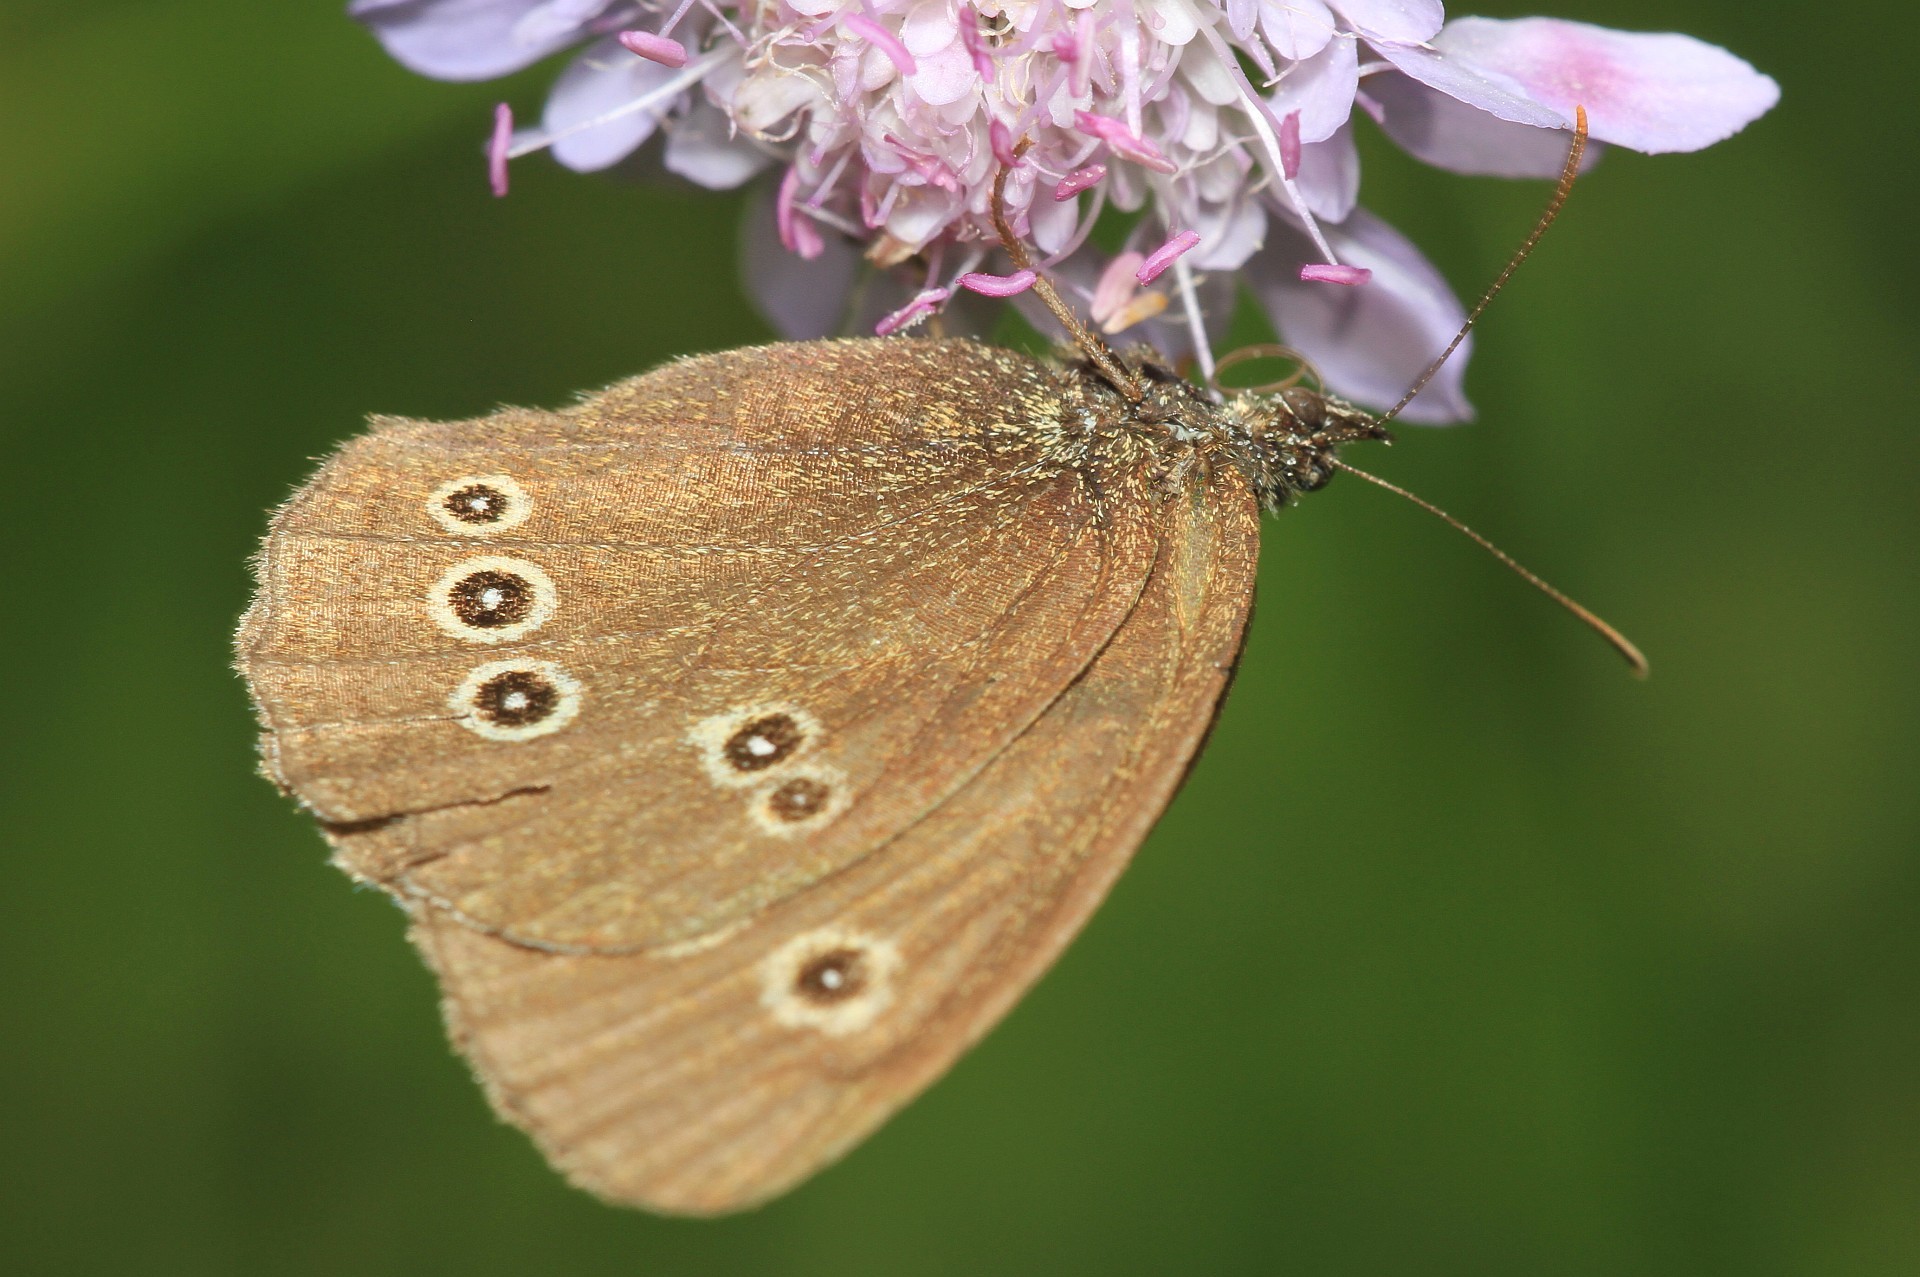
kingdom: Animalia
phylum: Arthropoda
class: Insecta
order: Lepidoptera
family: Nymphalidae
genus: Aphantopus
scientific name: Aphantopus hyperantus
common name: Ringlet
